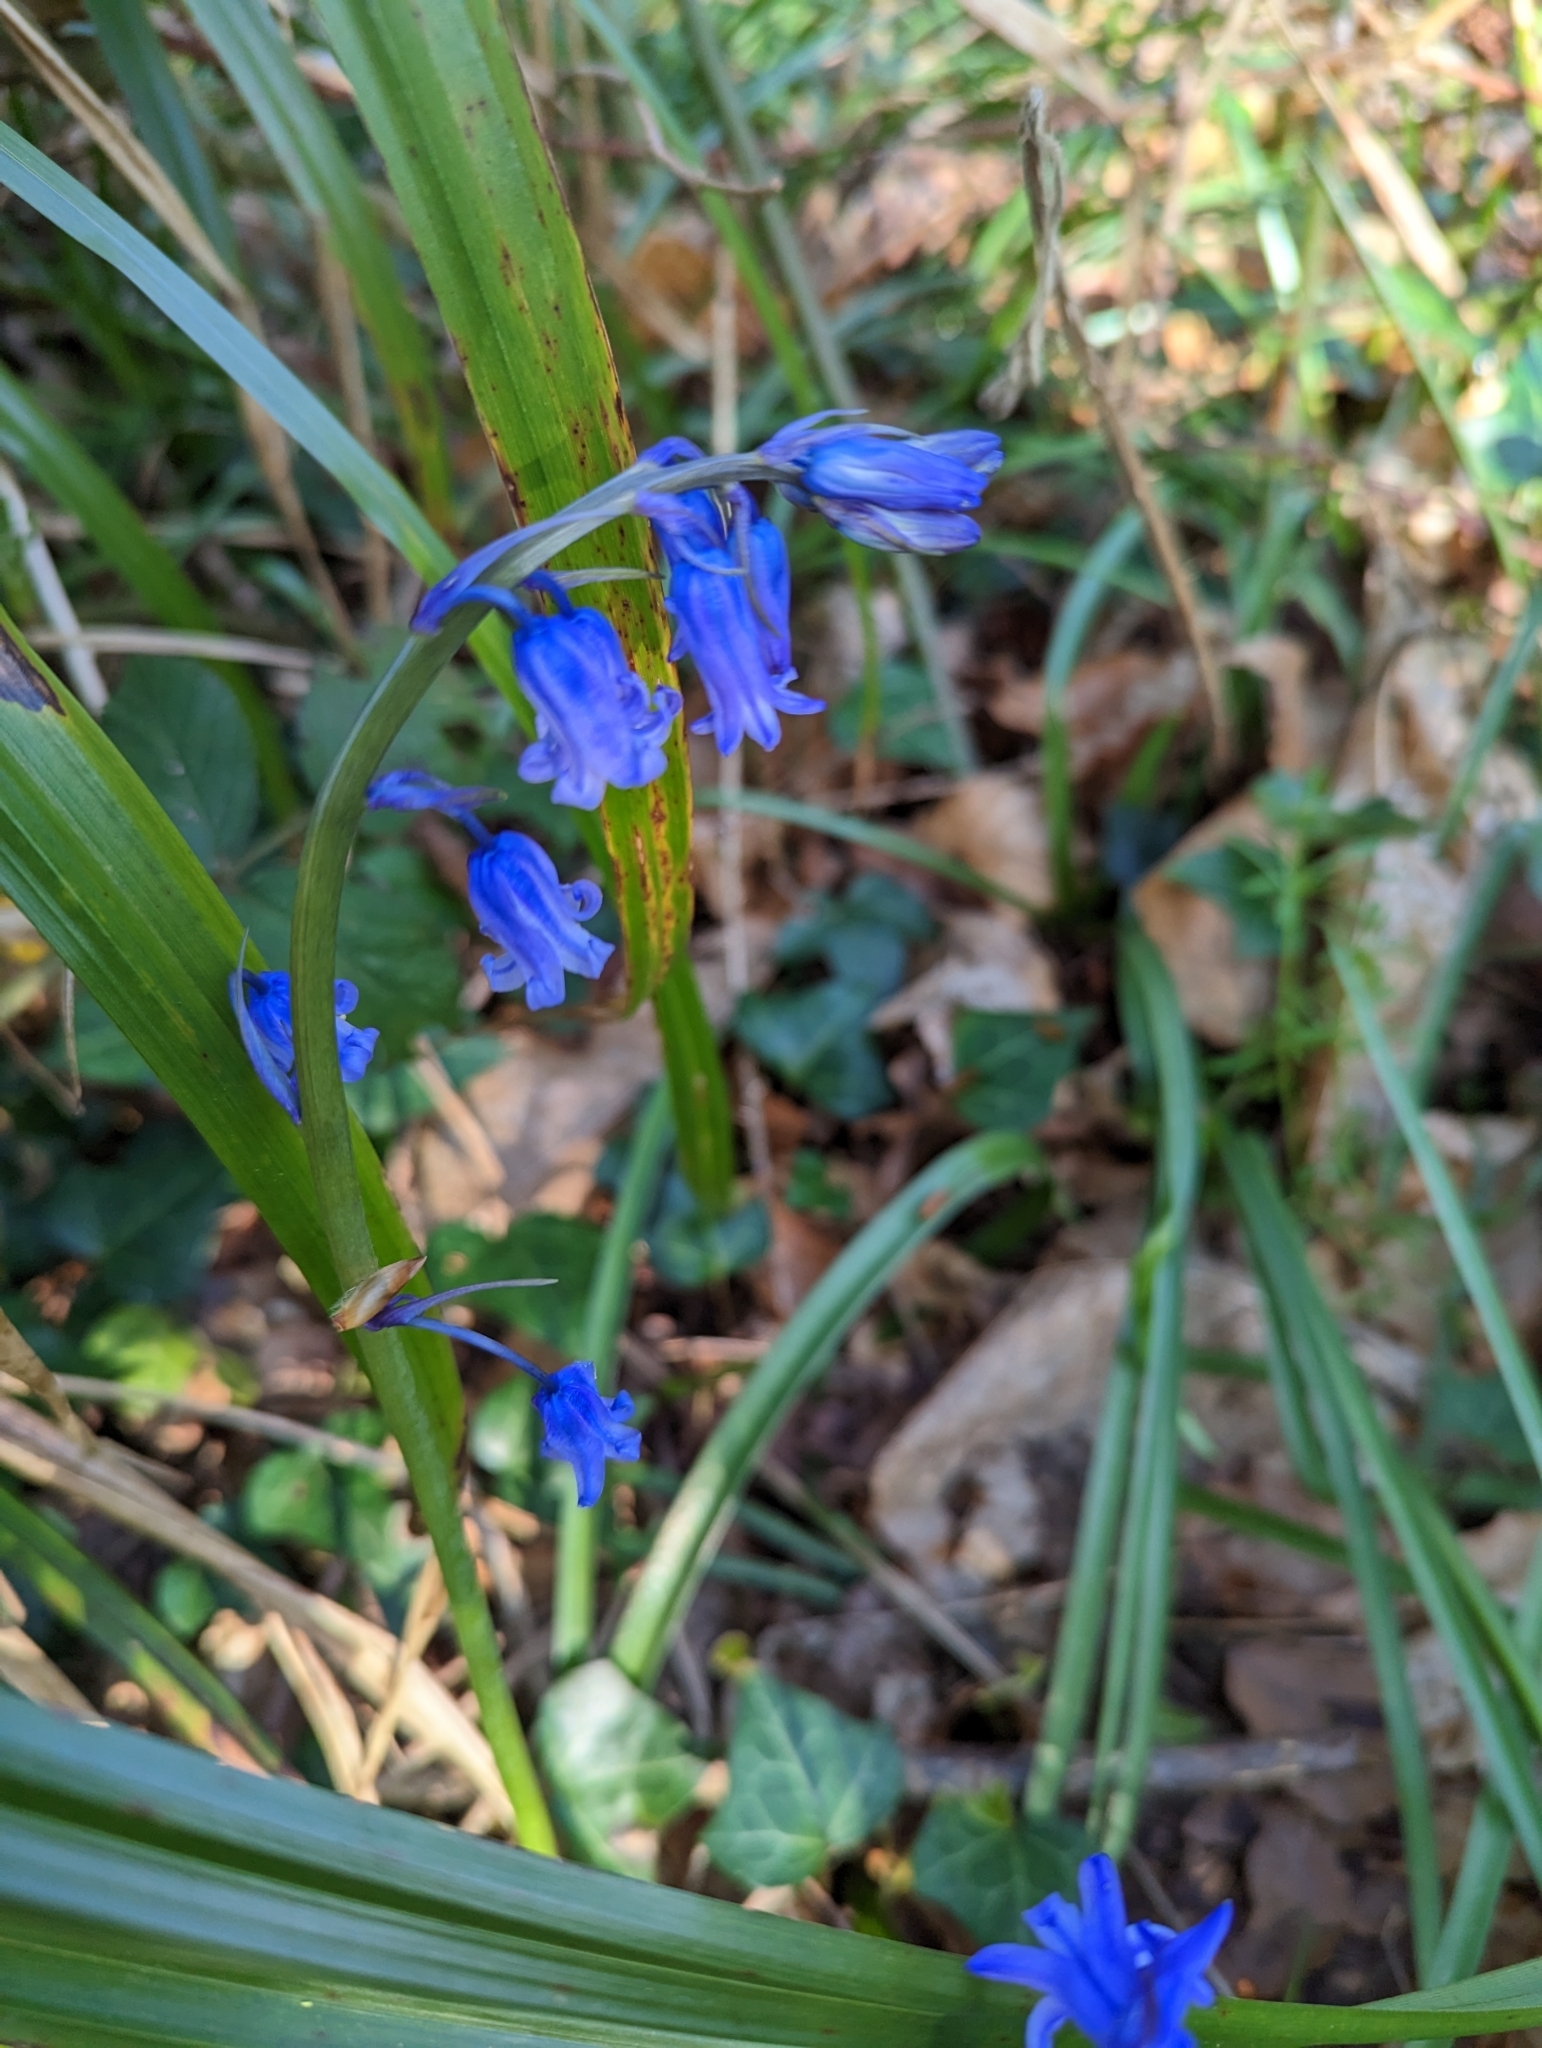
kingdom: Plantae
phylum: Tracheophyta
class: Liliopsida
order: Asparagales
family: Asparagaceae
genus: Hyacinthoides
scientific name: Hyacinthoides non-scripta
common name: Bluebell
